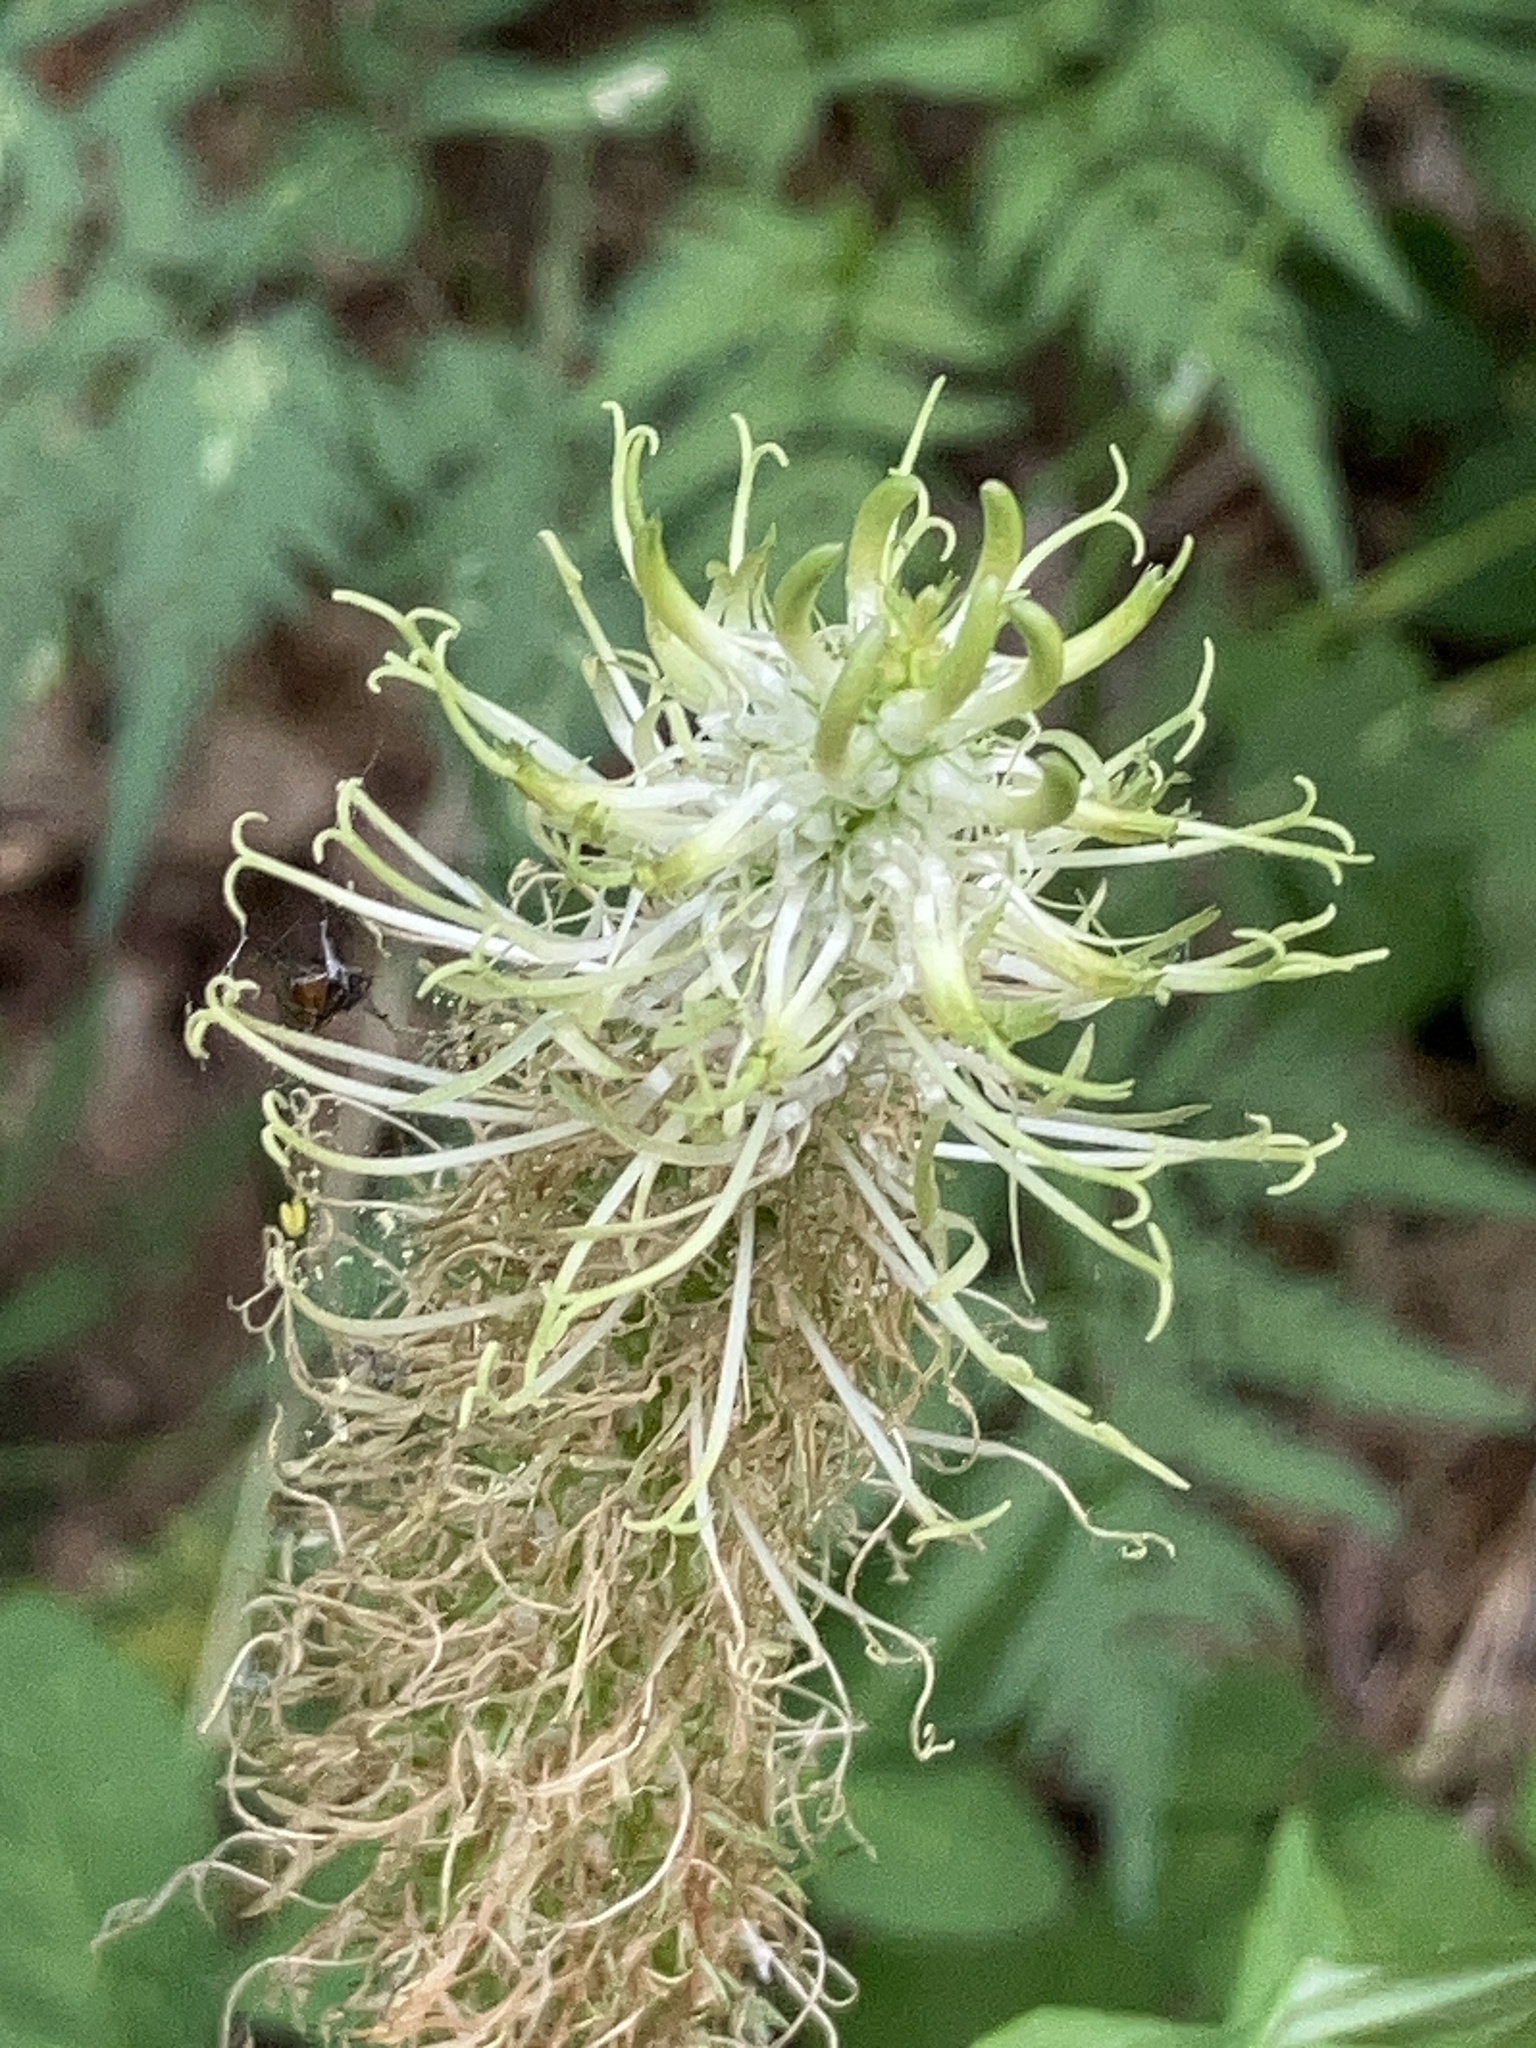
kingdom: Plantae
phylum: Tracheophyta
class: Magnoliopsida
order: Asterales
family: Campanulaceae
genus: Phyteuma
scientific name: Phyteuma spicatum
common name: Spiked rampion
